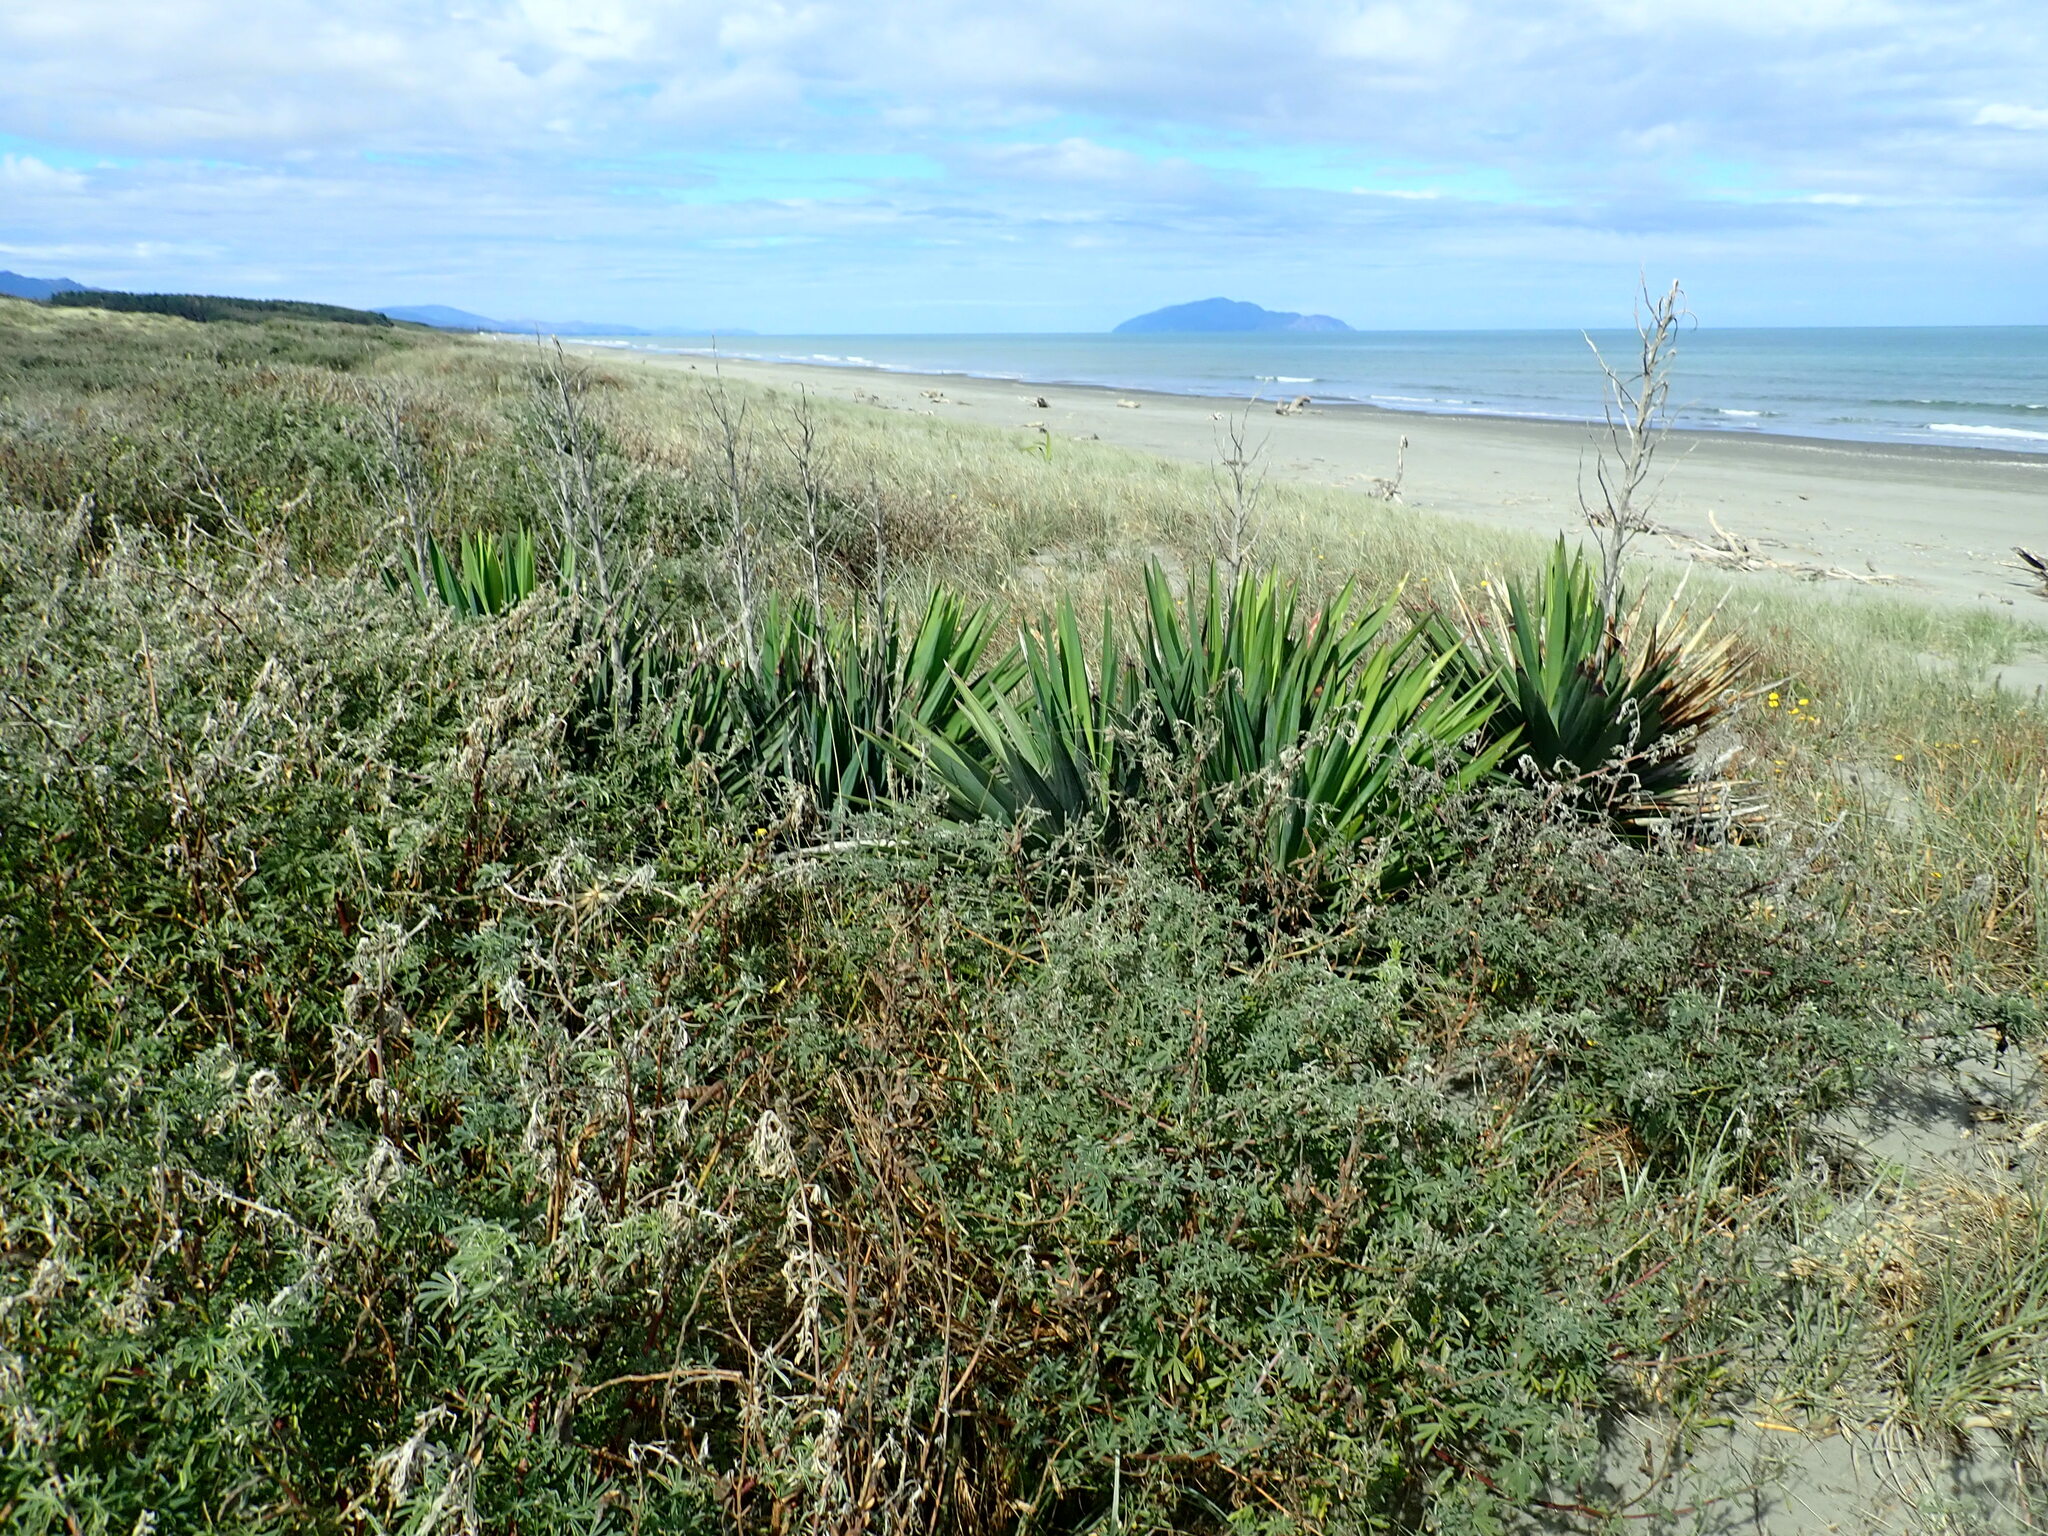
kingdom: Plantae
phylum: Tracheophyta
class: Liliopsida
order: Asparagales
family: Asparagaceae
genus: Yucca
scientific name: Yucca gloriosa
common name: Spanish-dagger
